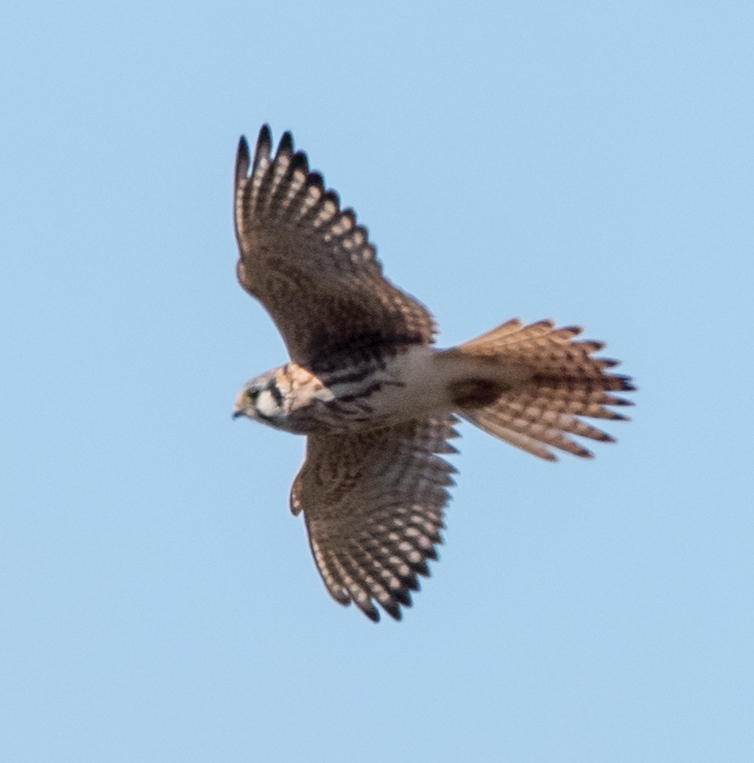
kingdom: Animalia
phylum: Chordata
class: Aves
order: Falconiformes
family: Falconidae
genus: Falco
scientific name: Falco sparverius
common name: American kestrel
